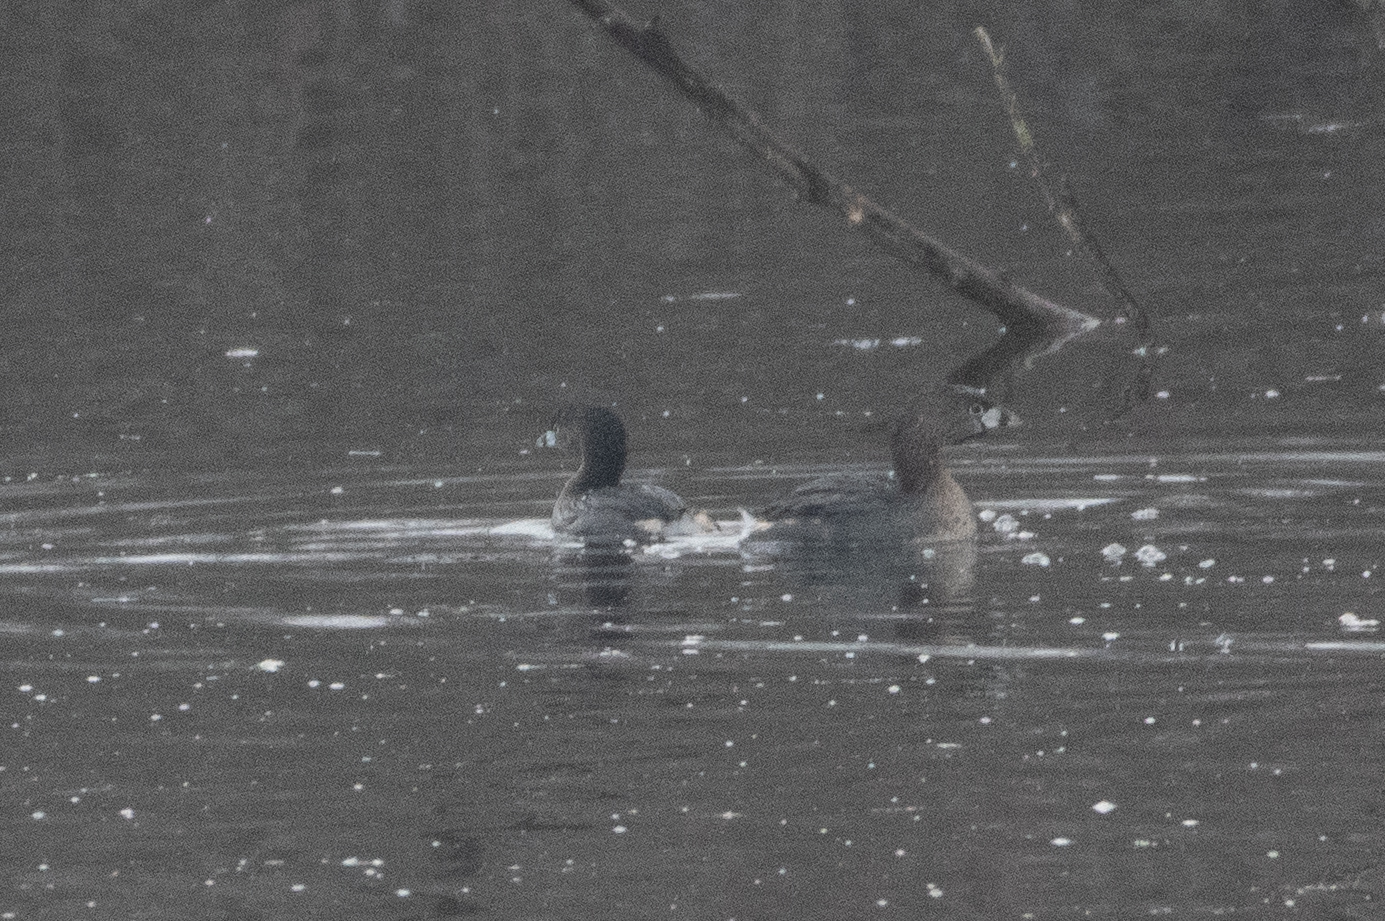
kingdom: Animalia
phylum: Chordata
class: Aves
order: Podicipediformes
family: Podicipedidae
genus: Podilymbus
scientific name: Podilymbus podiceps
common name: Pied-billed grebe
